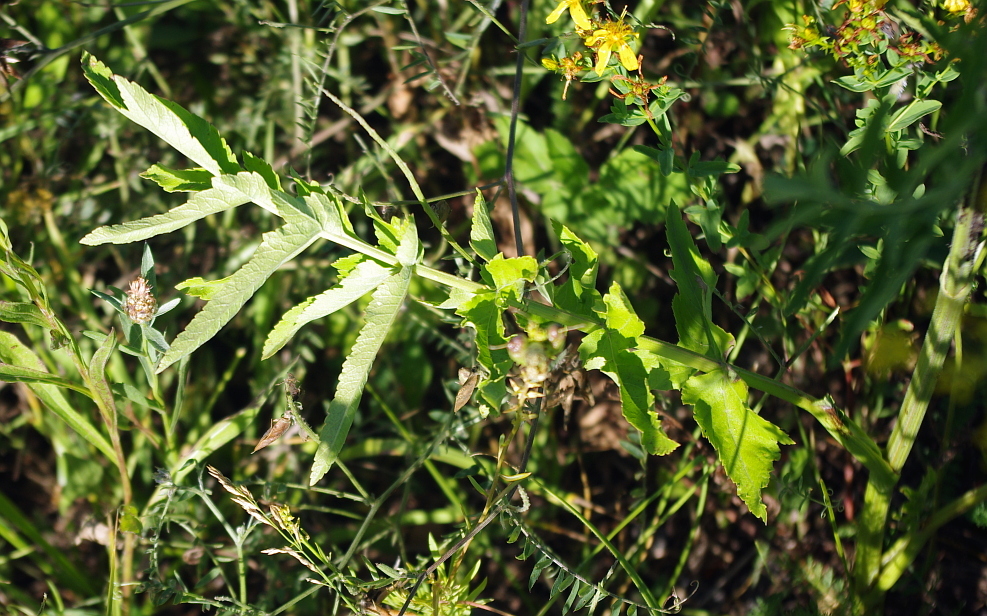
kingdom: Plantae
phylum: Tracheophyta
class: Magnoliopsida
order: Apiales
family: Apiaceae
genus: Pastinaca
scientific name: Pastinaca sativa
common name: Wild parsnip
